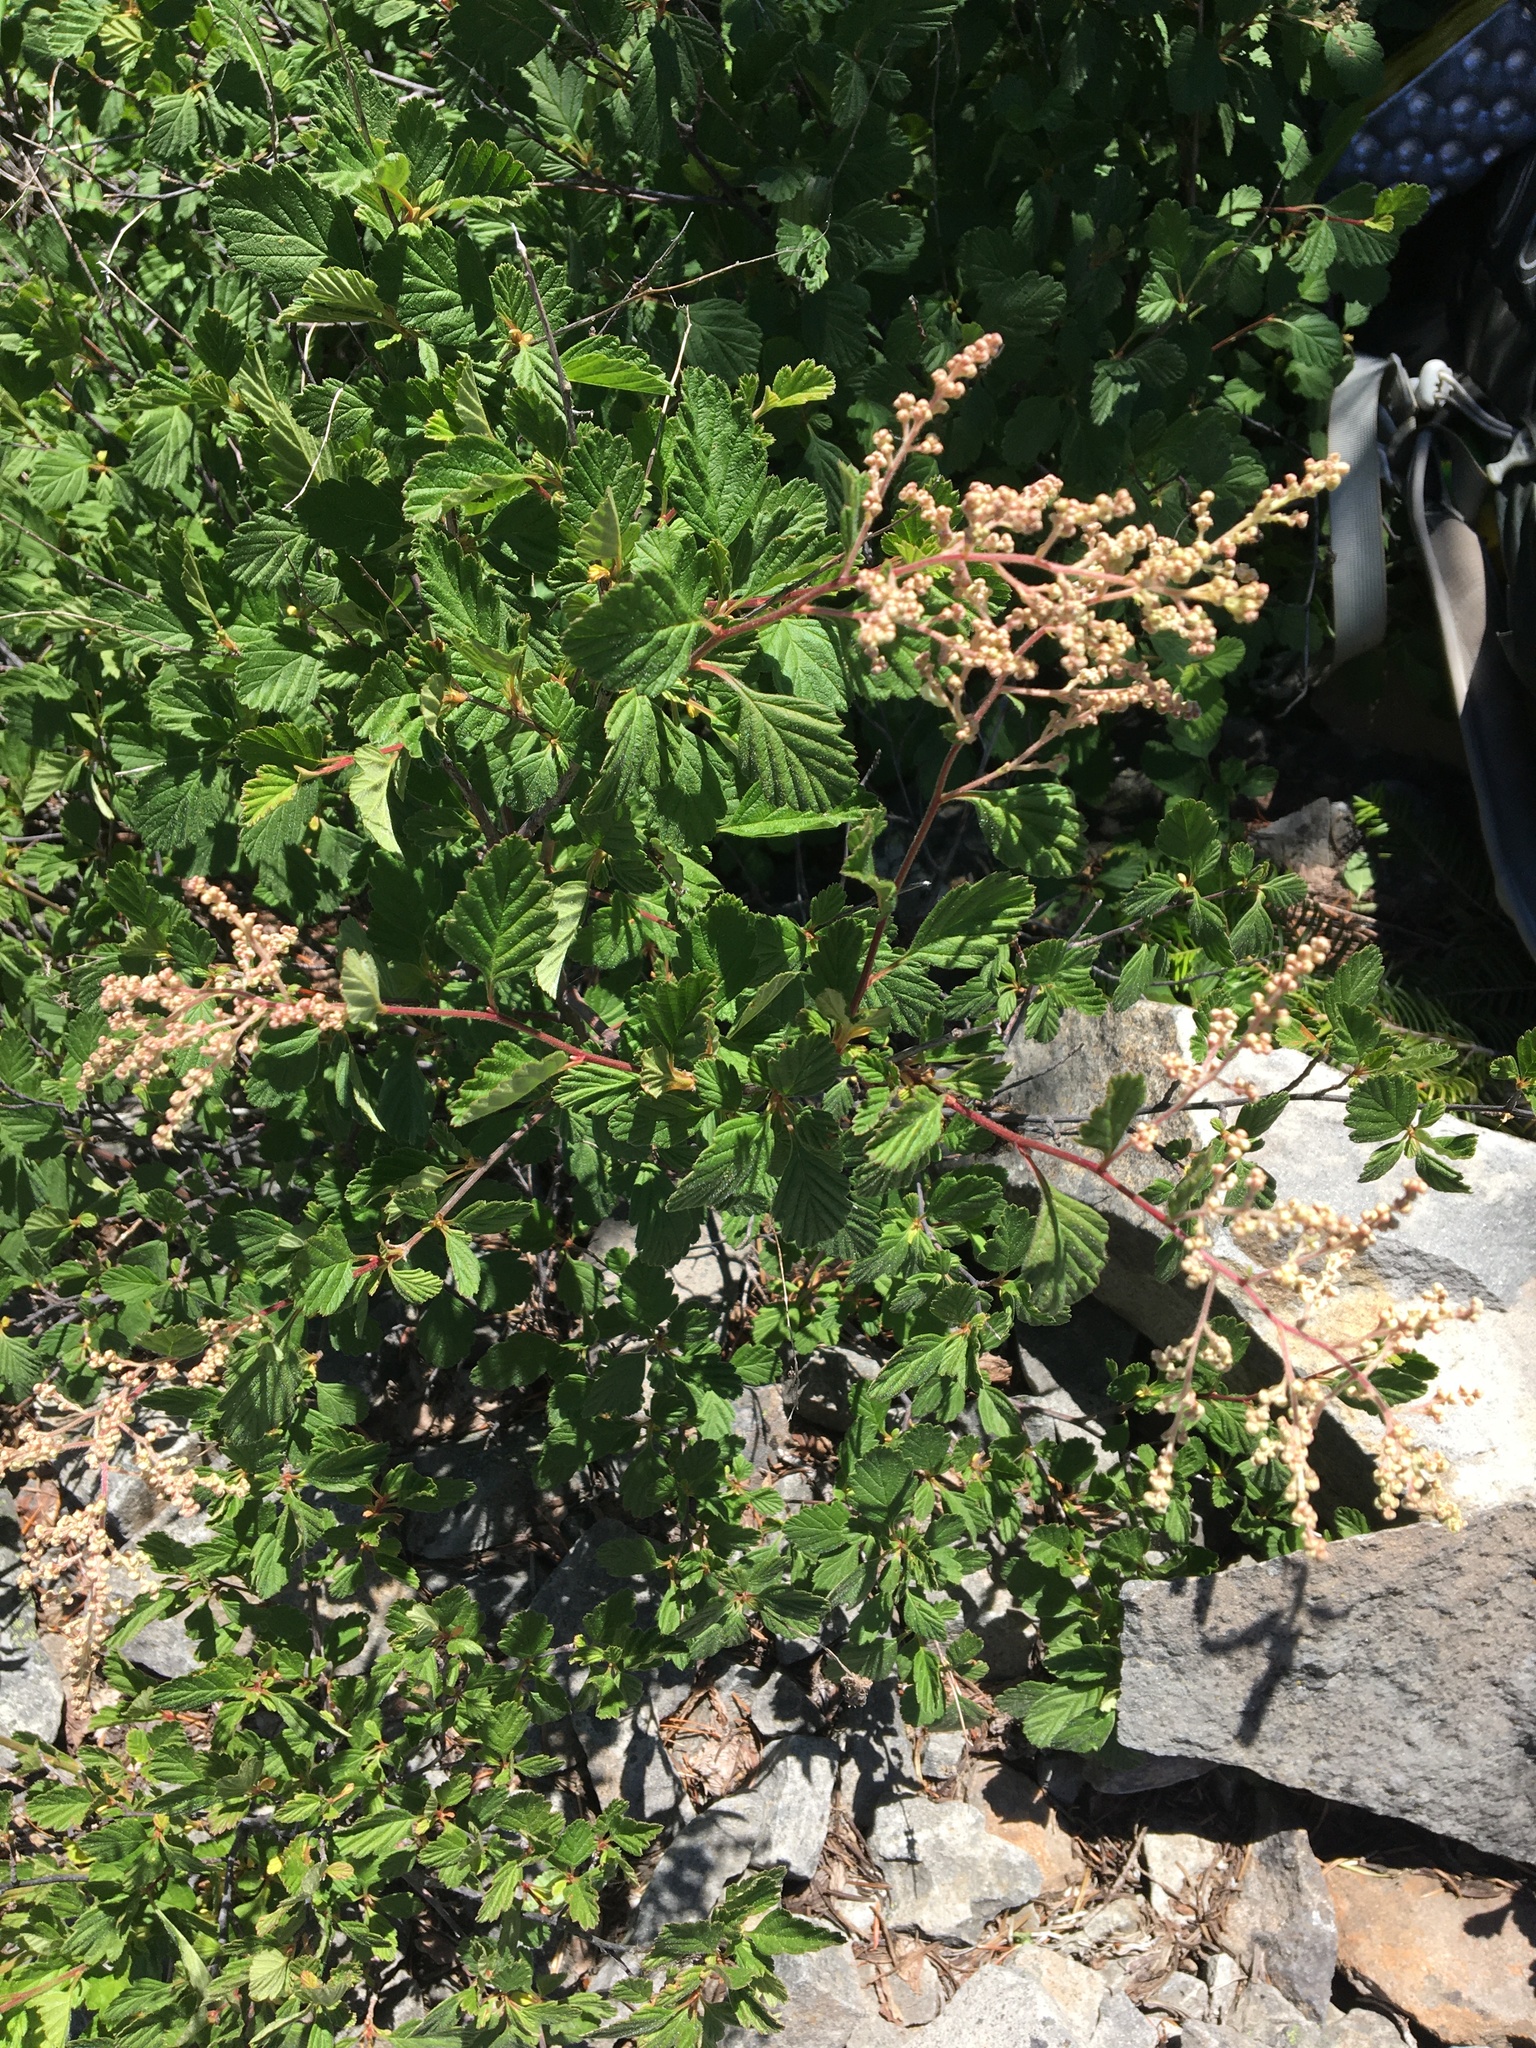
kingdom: Plantae
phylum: Tracheophyta
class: Magnoliopsida
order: Rosales
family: Rosaceae
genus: Holodiscus
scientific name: Holodiscus discolor
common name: Oceanspray
